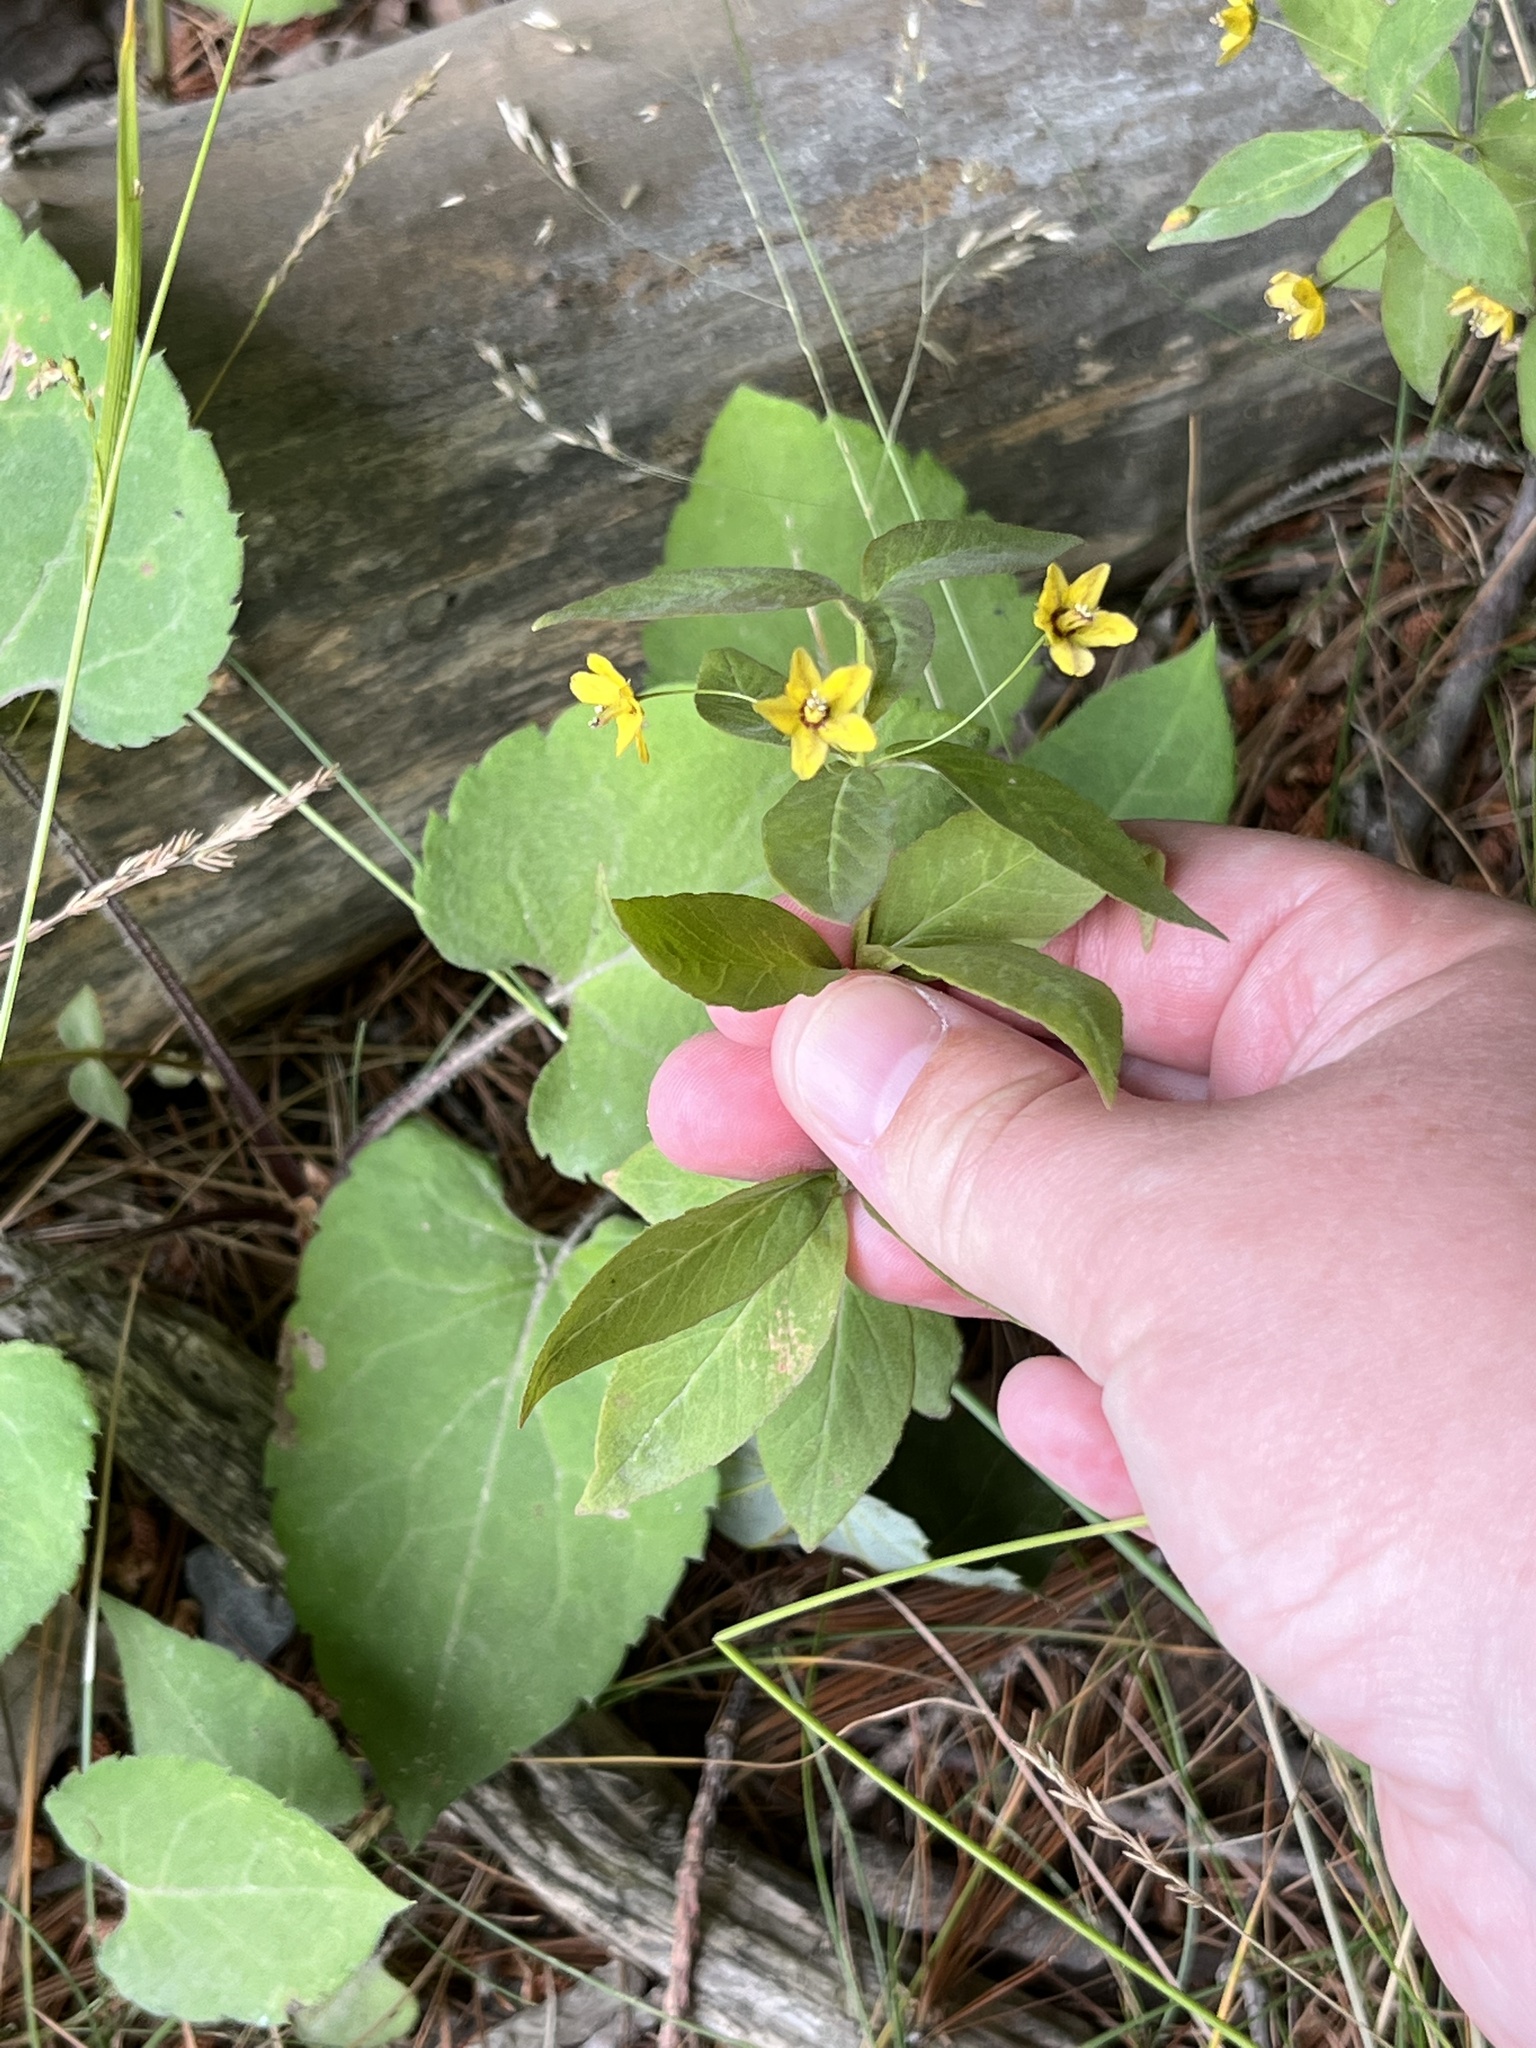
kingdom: Plantae
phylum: Tracheophyta
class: Magnoliopsida
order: Ericales
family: Primulaceae
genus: Lysimachia
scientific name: Lysimachia quadrifolia
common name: Whorled loosestrife
